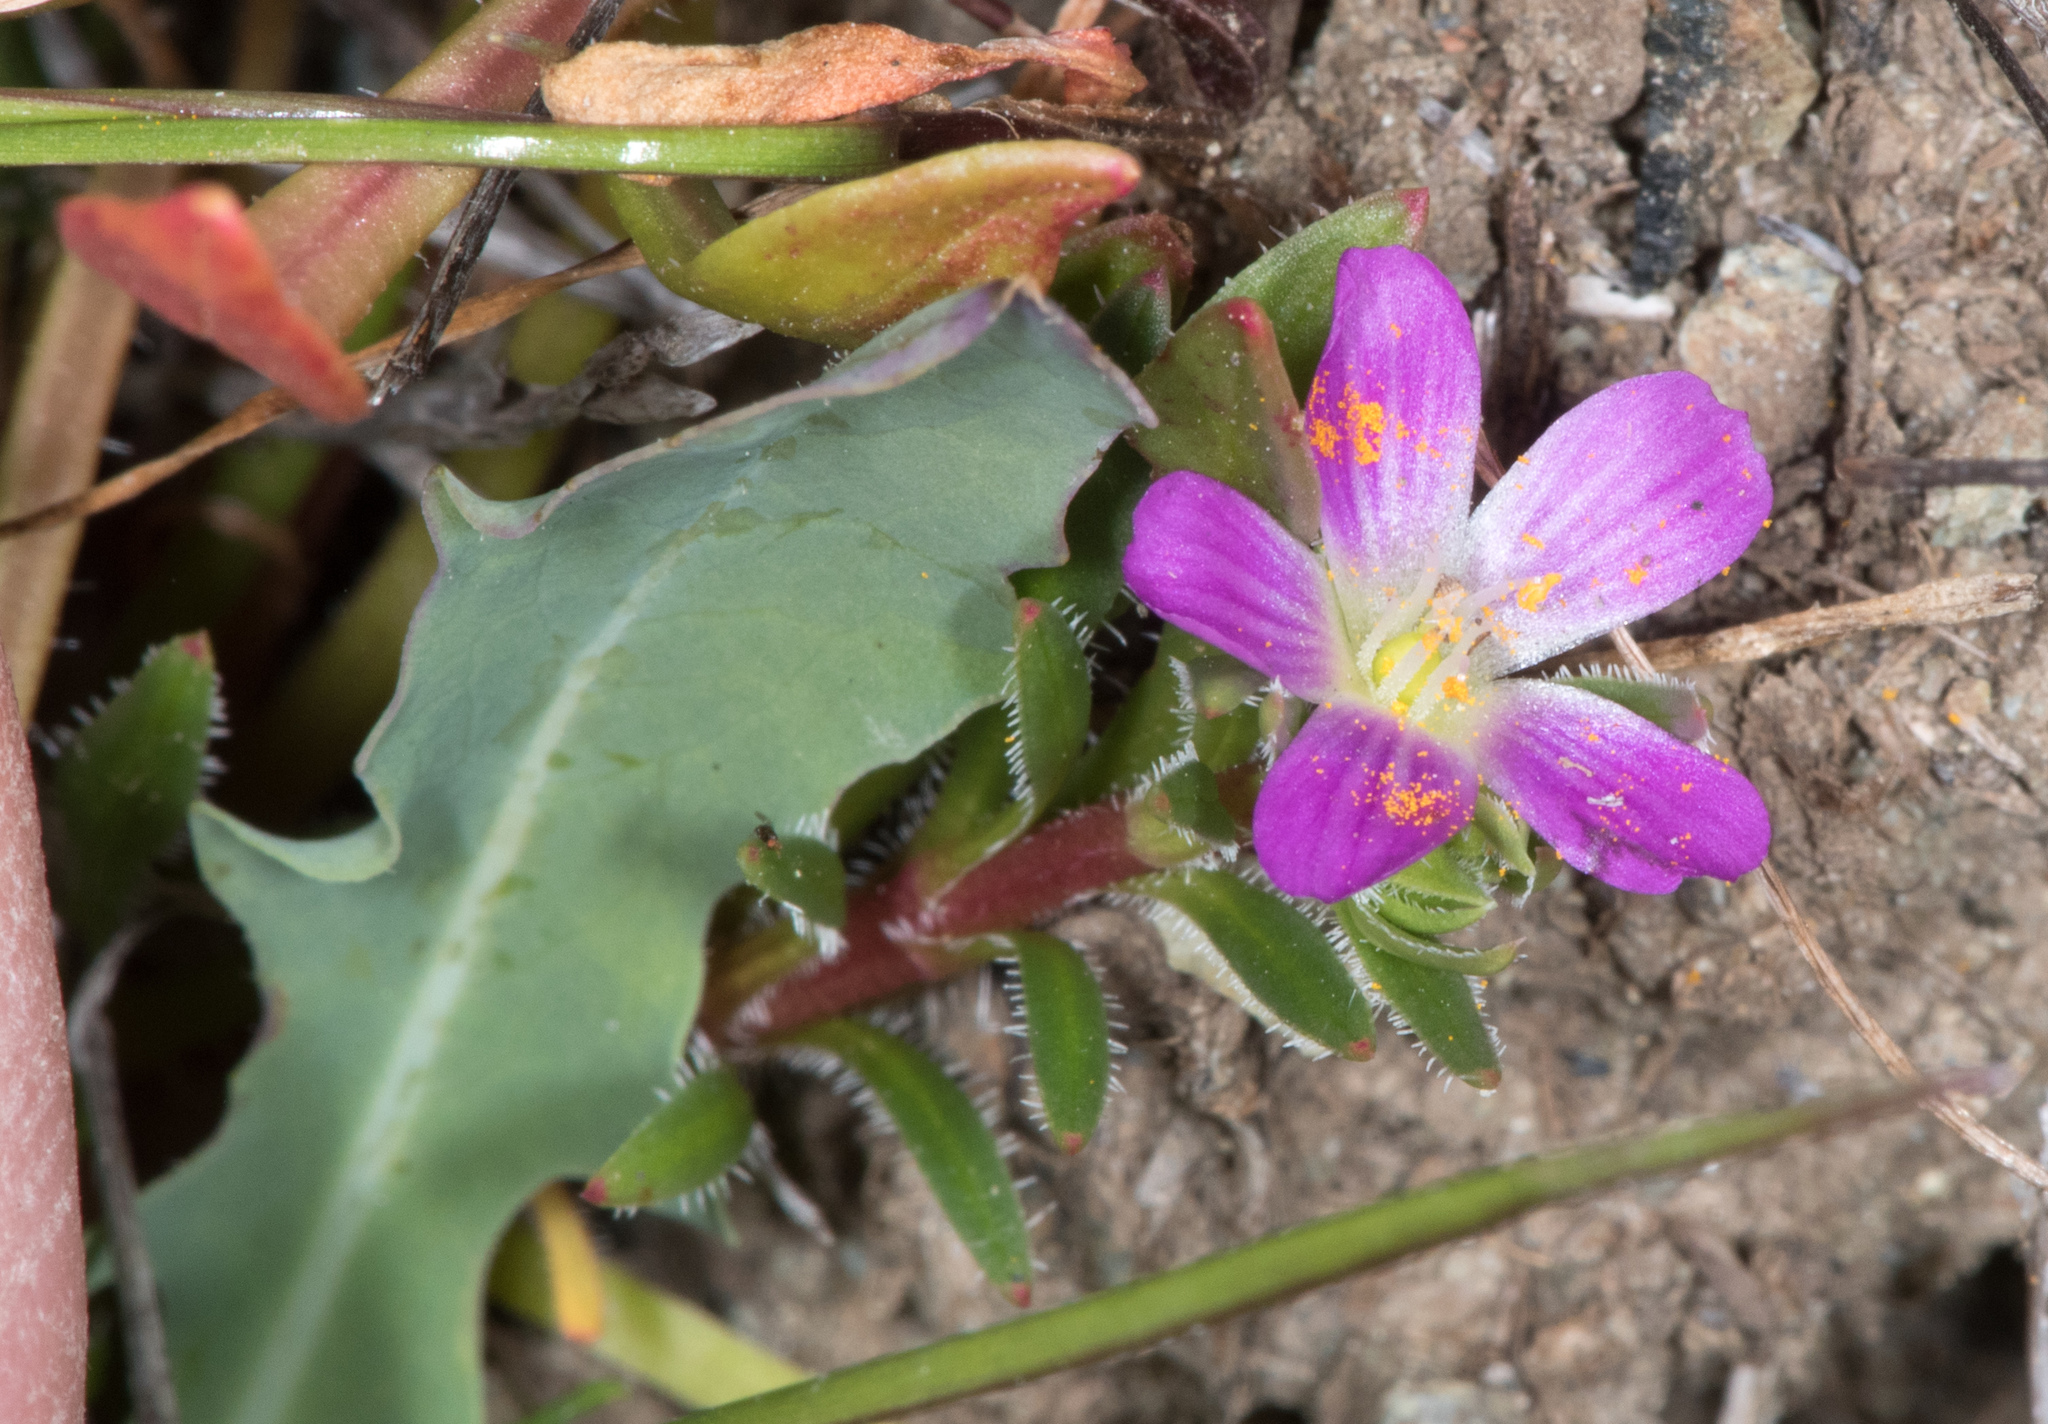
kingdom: Plantae
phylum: Tracheophyta
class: Magnoliopsida
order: Caryophyllales
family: Montiaceae
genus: Calandrinia
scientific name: Calandrinia breweri
